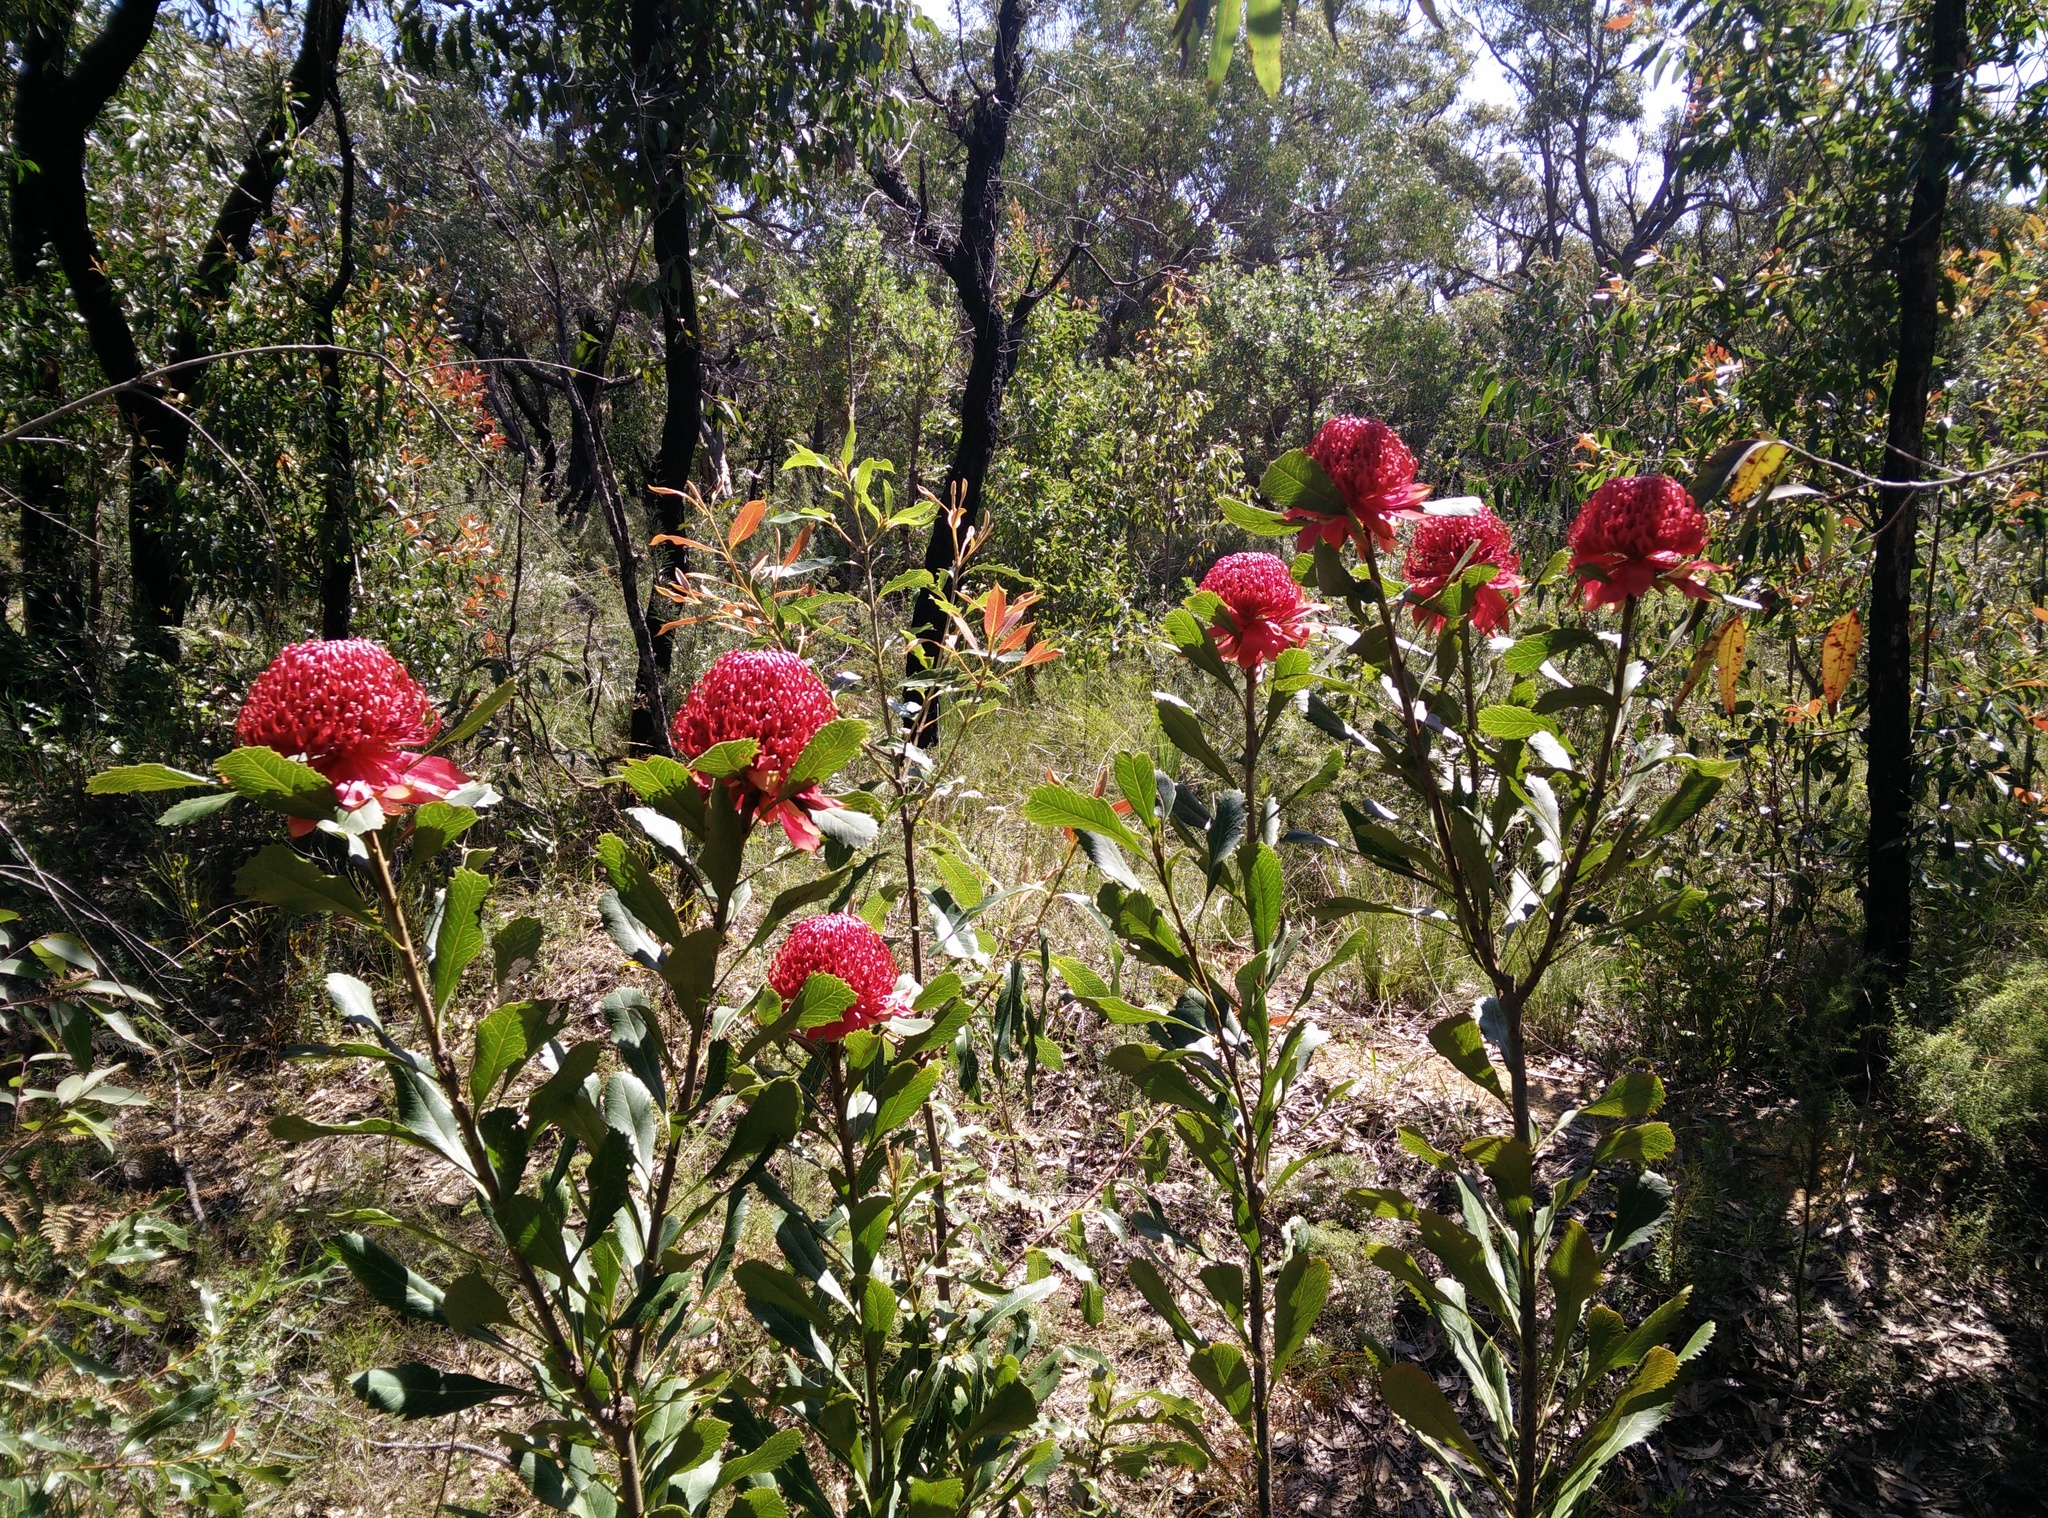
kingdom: Plantae
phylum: Tracheophyta
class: Magnoliopsida
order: Proteales
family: Proteaceae
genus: Telopea
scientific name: Telopea speciosissima
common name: New south wales waratah
